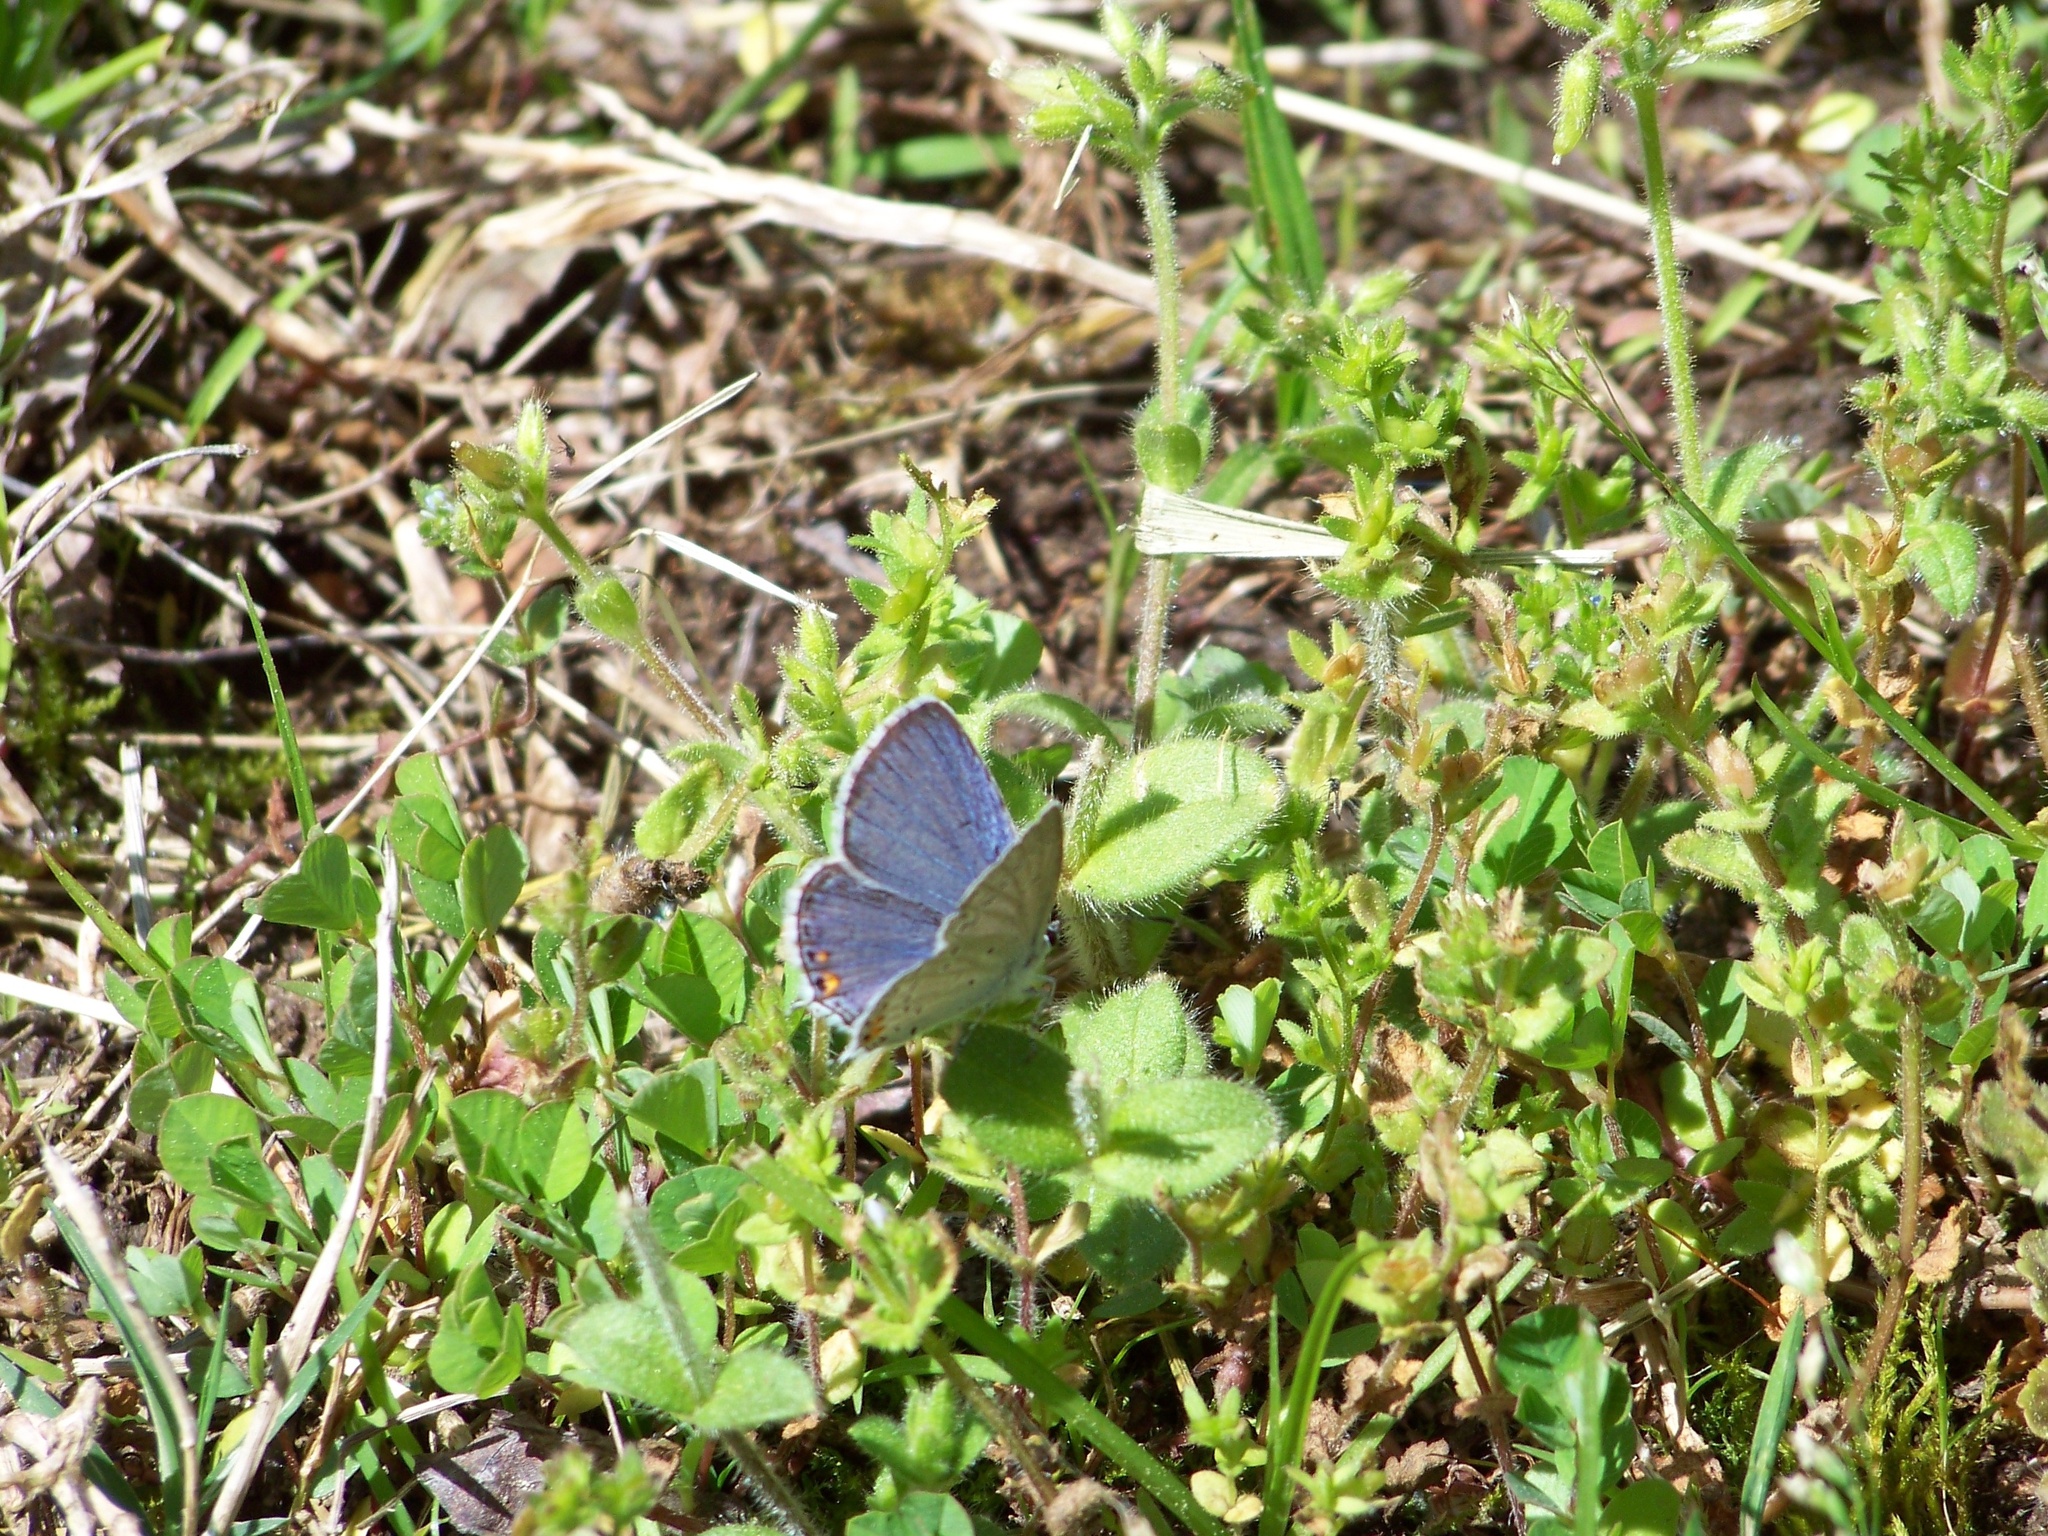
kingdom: Animalia
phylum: Arthropoda
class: Insecta
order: Lepidoptera
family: Lycaenidae
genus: Elkalyce
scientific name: Elkalyce comyntas
